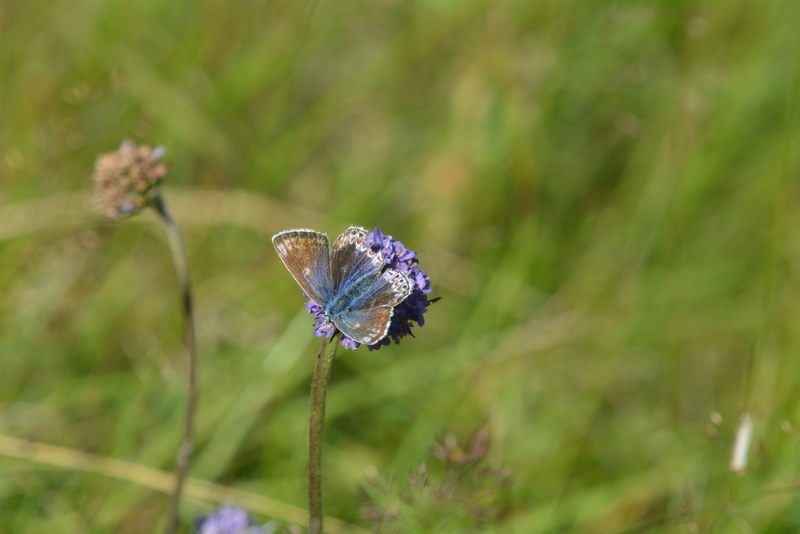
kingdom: Animalia
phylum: Arthropoda
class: Insecta
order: Lepidoptera
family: Lycaenidae
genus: Polyommatus
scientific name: Polyommatus icarus
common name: Common blue
